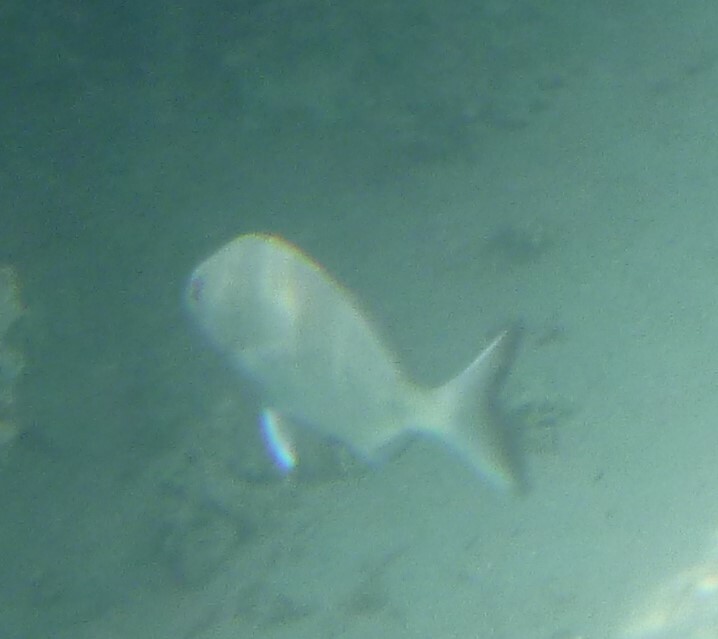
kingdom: Animalia
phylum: Chordata
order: Perciformes
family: Sparidae
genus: Diplodus
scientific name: Diplodus sargus
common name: White seabream
